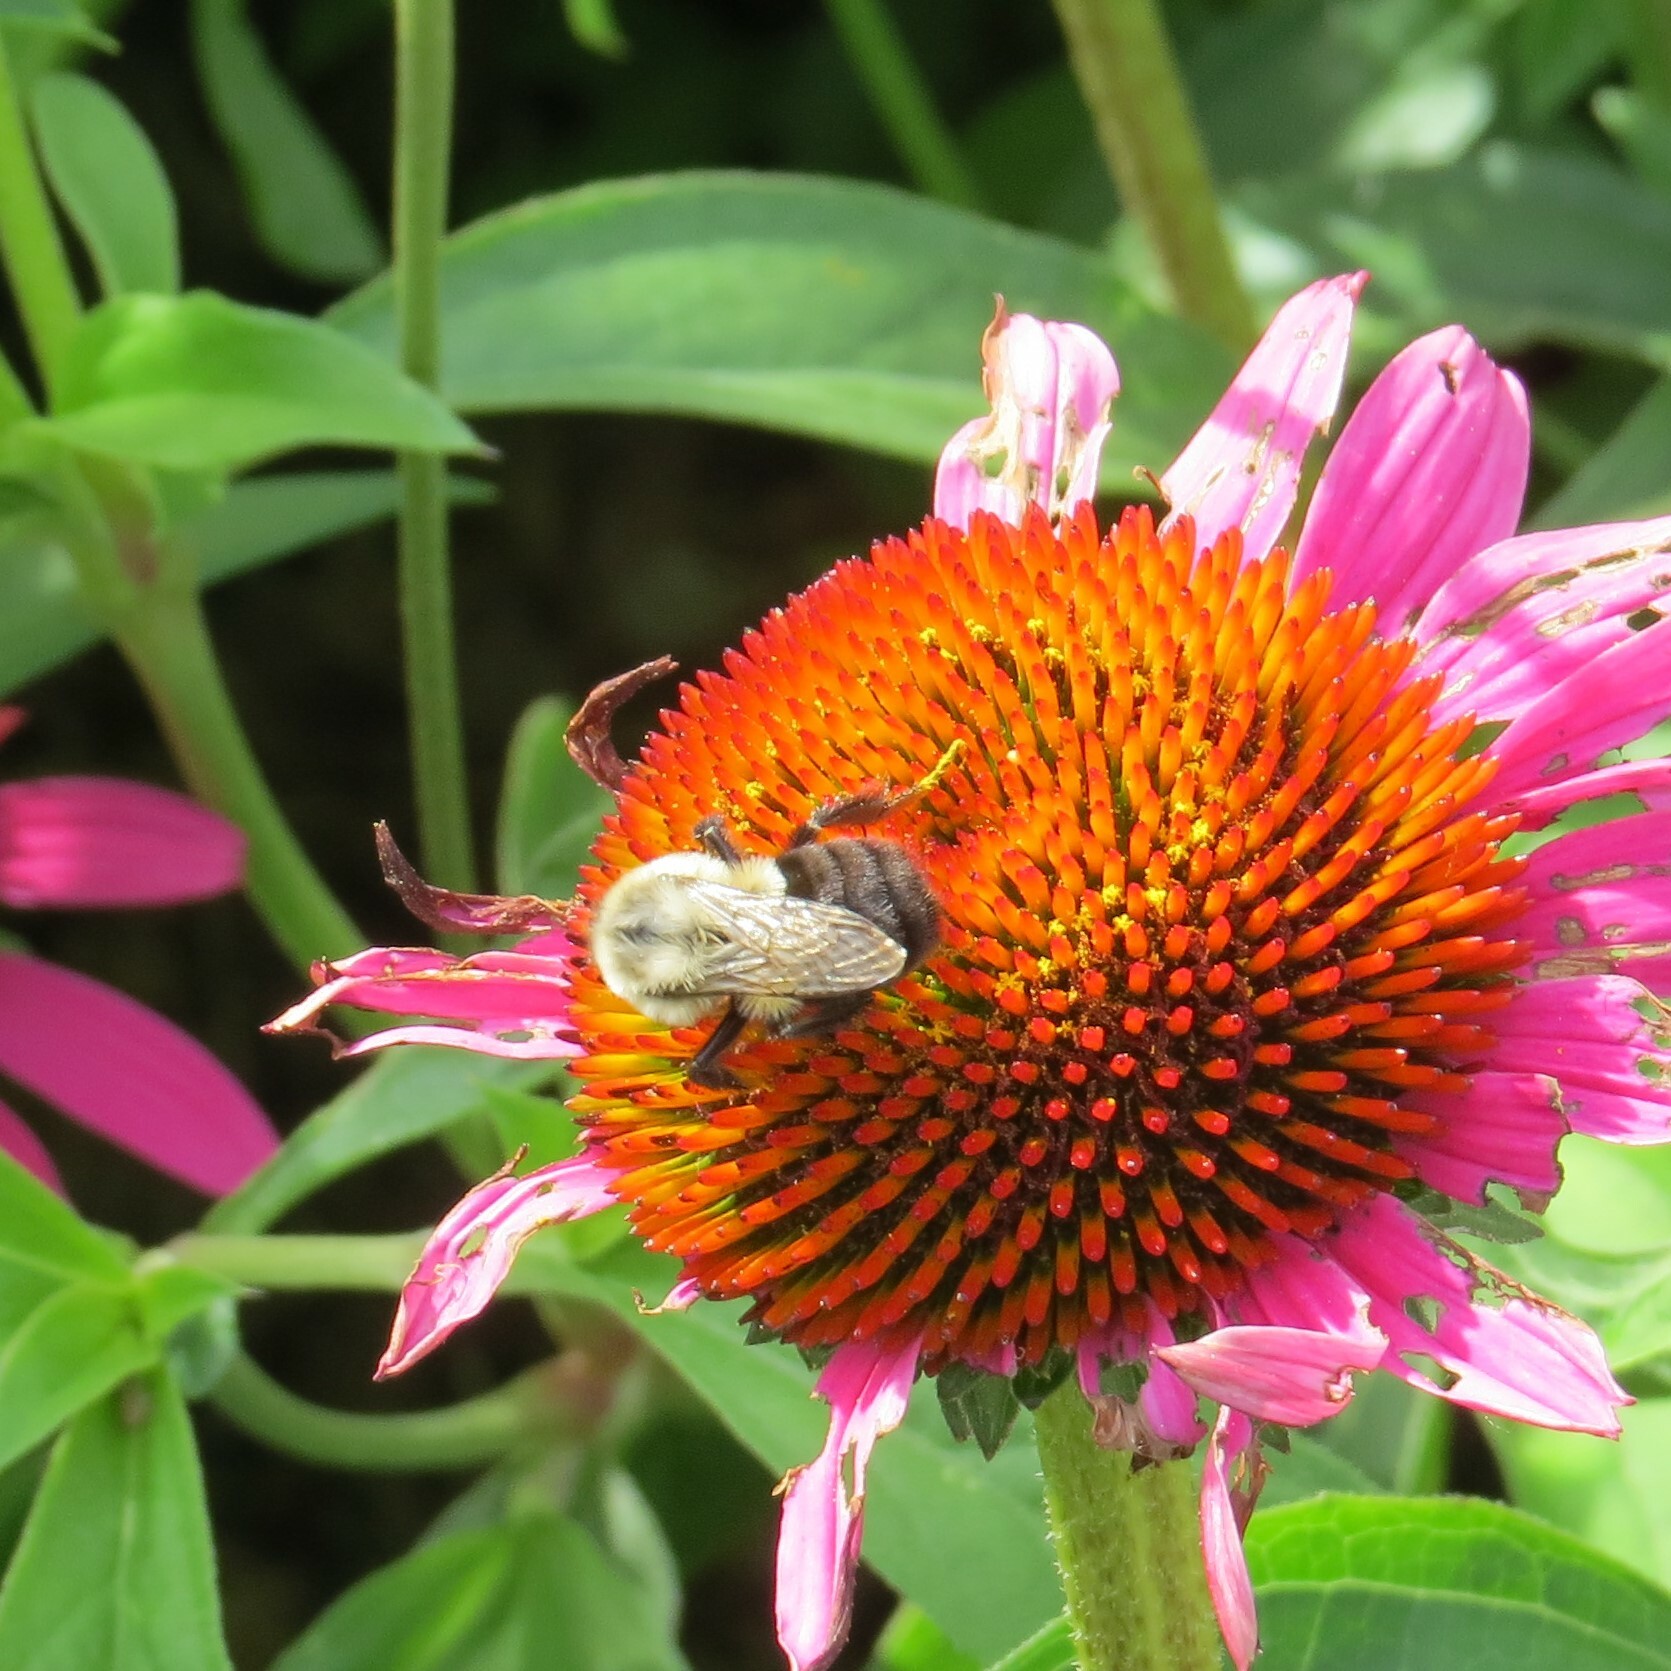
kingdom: Animalia
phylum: Arthropoda
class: Insecta
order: Hymenoptera
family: Apidae
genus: Bombus
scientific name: Bombus impatiens
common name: Common eastern bumble bee
